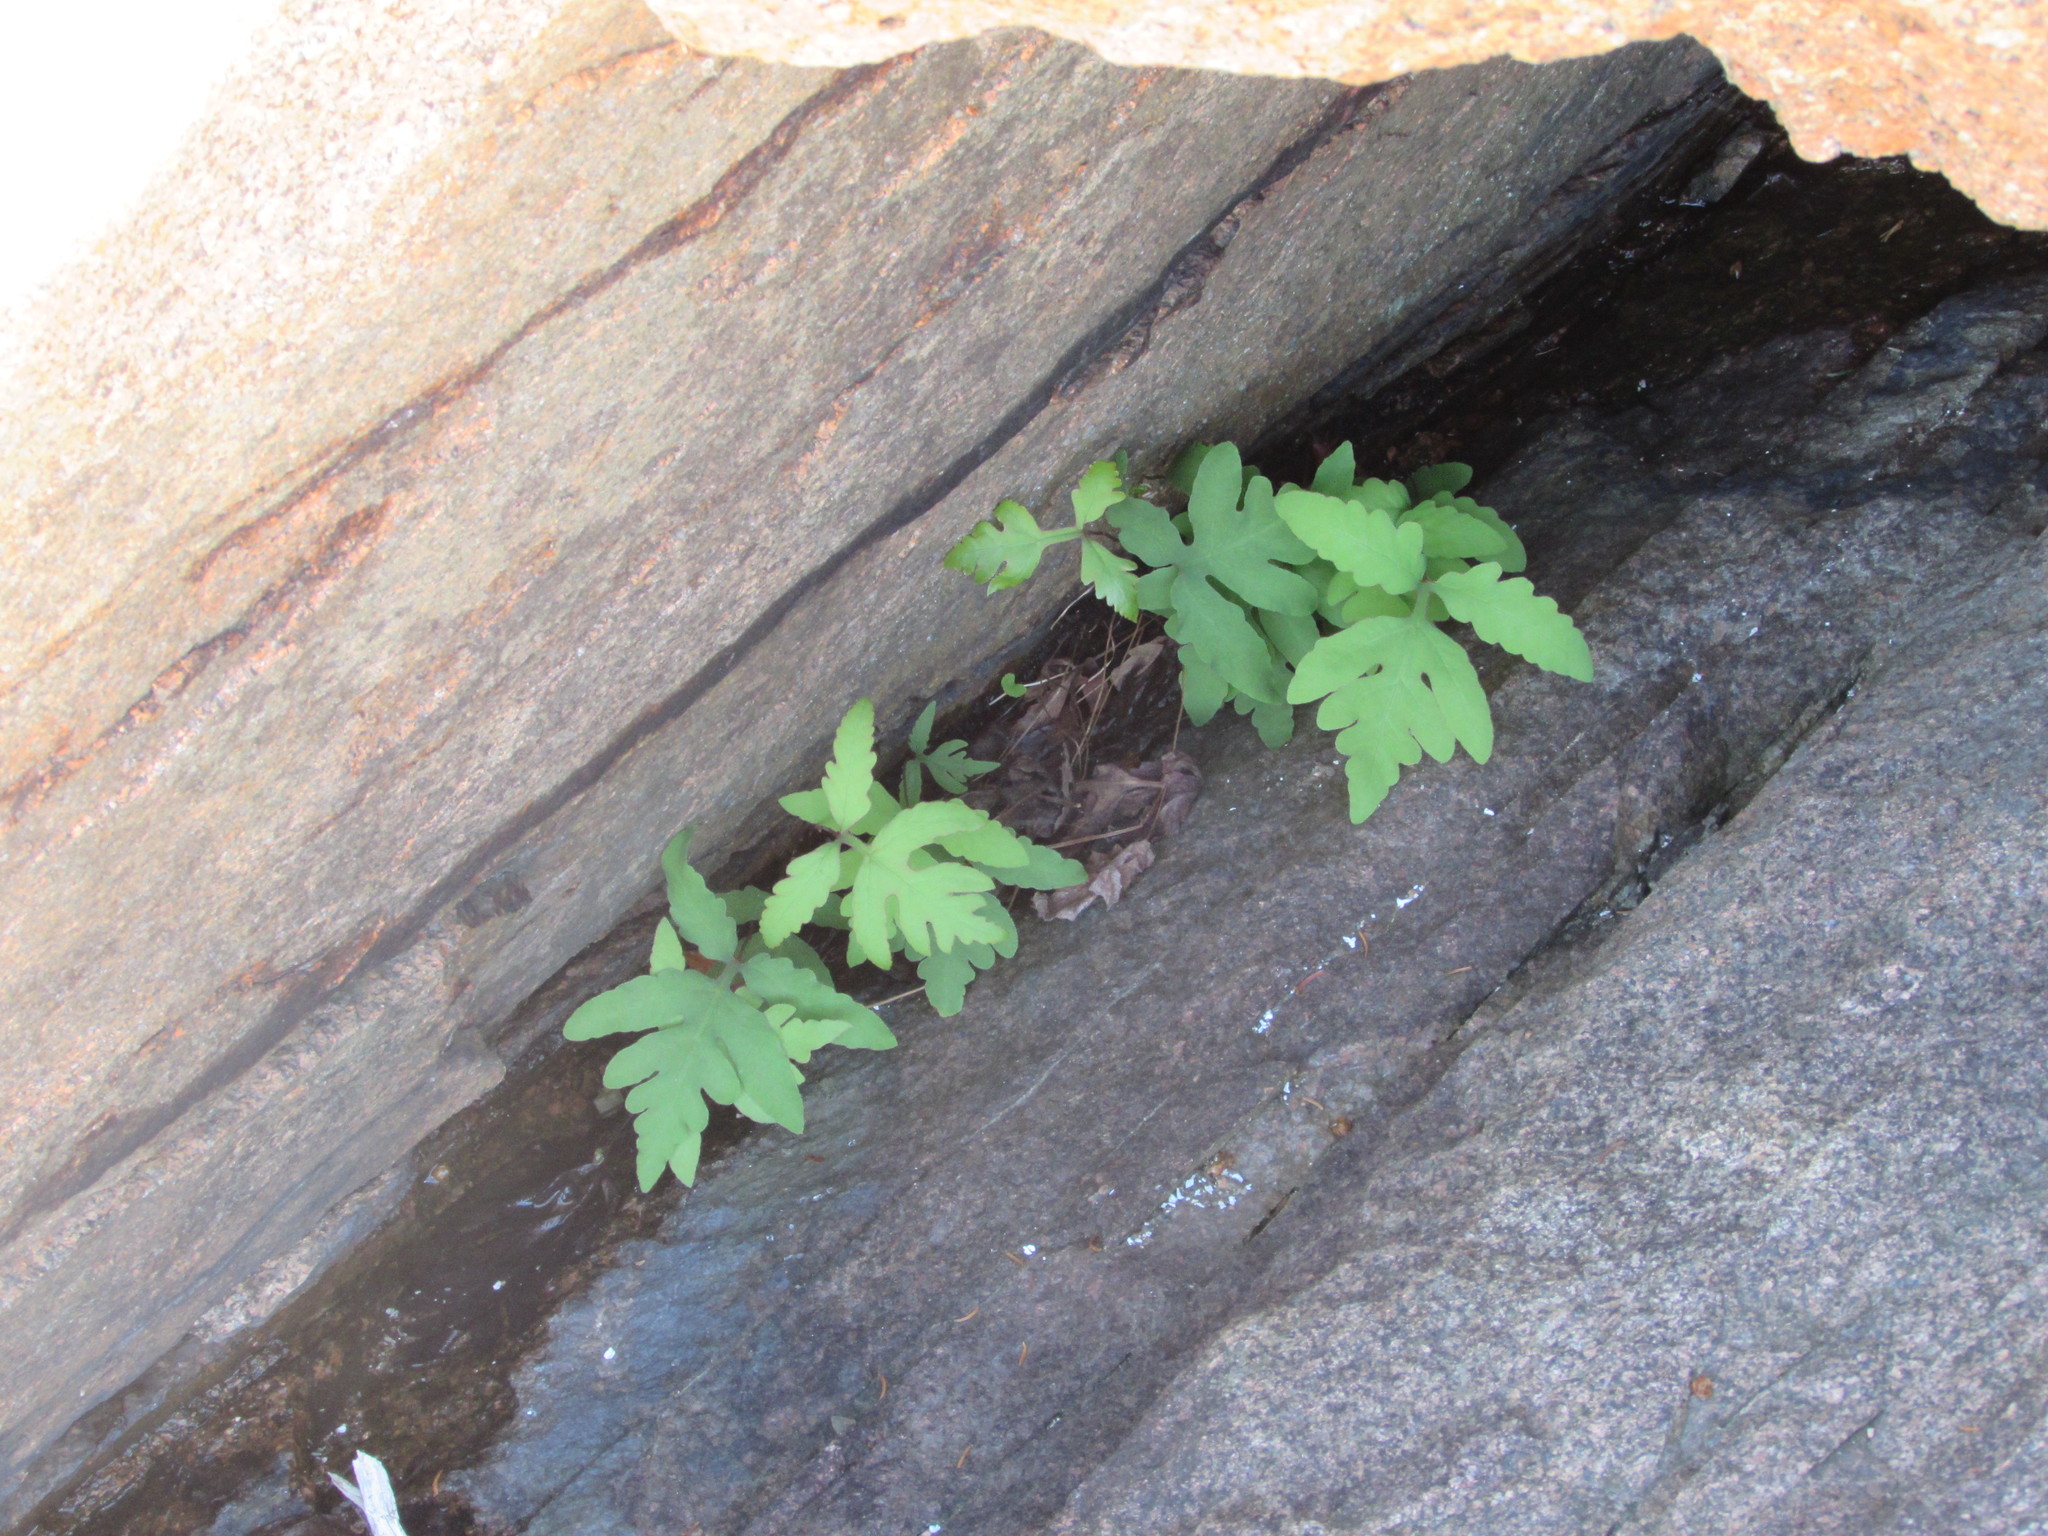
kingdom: Plantae
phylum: Tracheophyta
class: Polypodiopsida
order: Polypodiales
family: Onocleaceae
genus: Onoclea
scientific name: Onoclea sensibilis
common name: Sensitive fern
